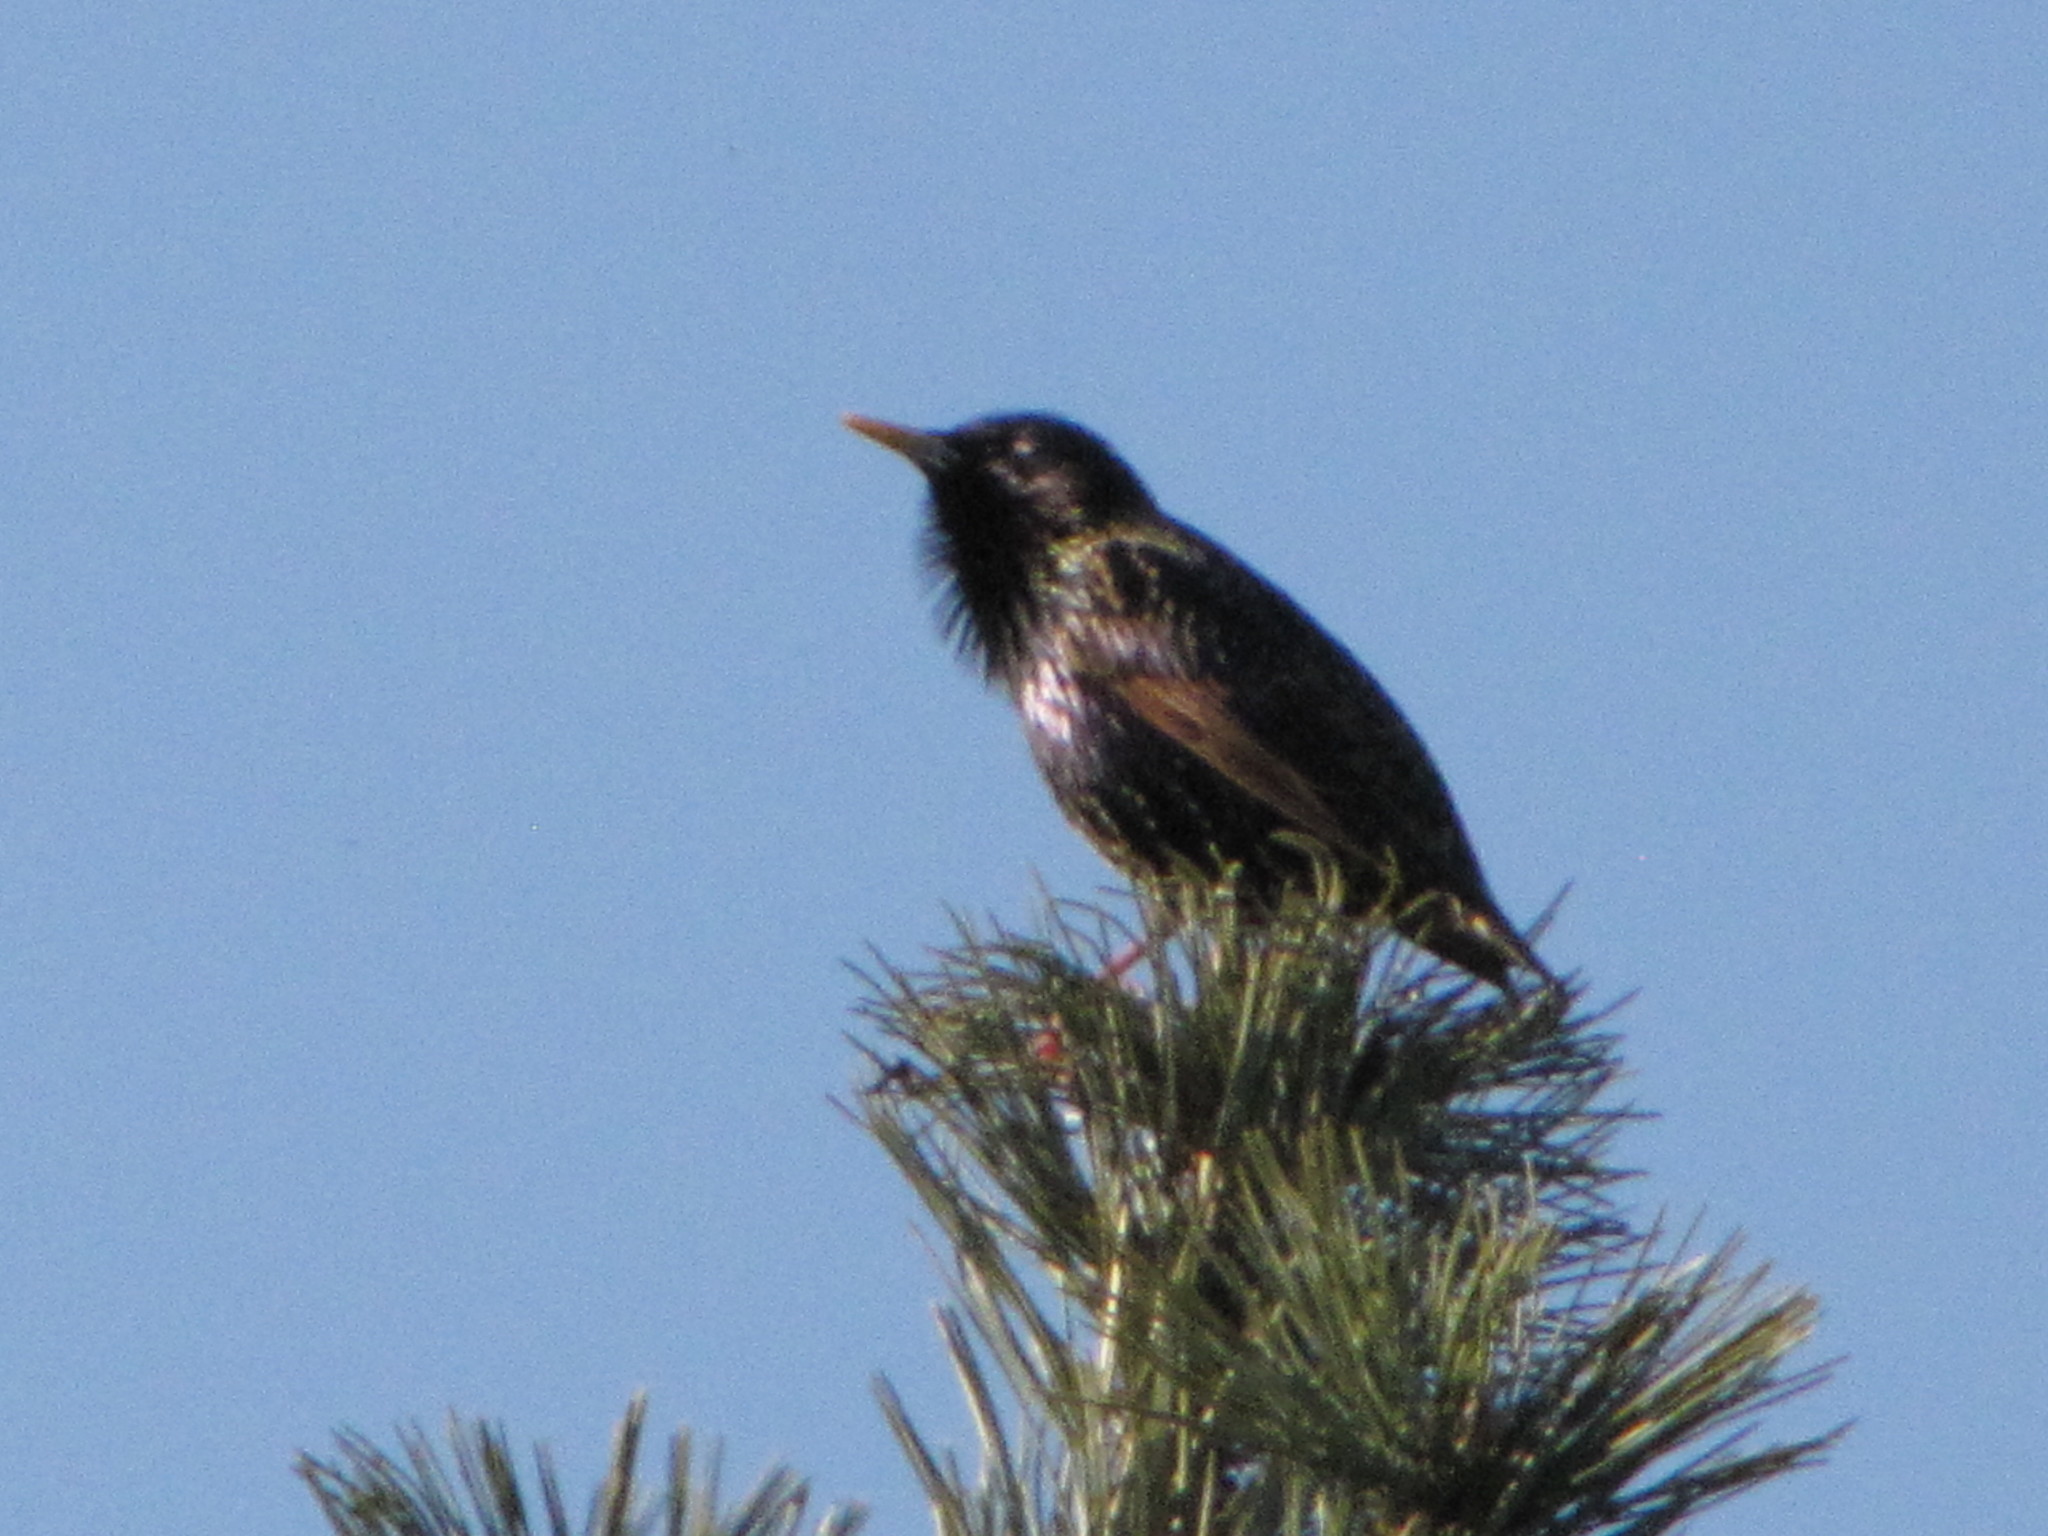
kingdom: Animalia
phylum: Chordata
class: Aves
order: Passeriformes
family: Sturnidae
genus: Sturnus
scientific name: Sturnus vulgaris
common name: Common starling
